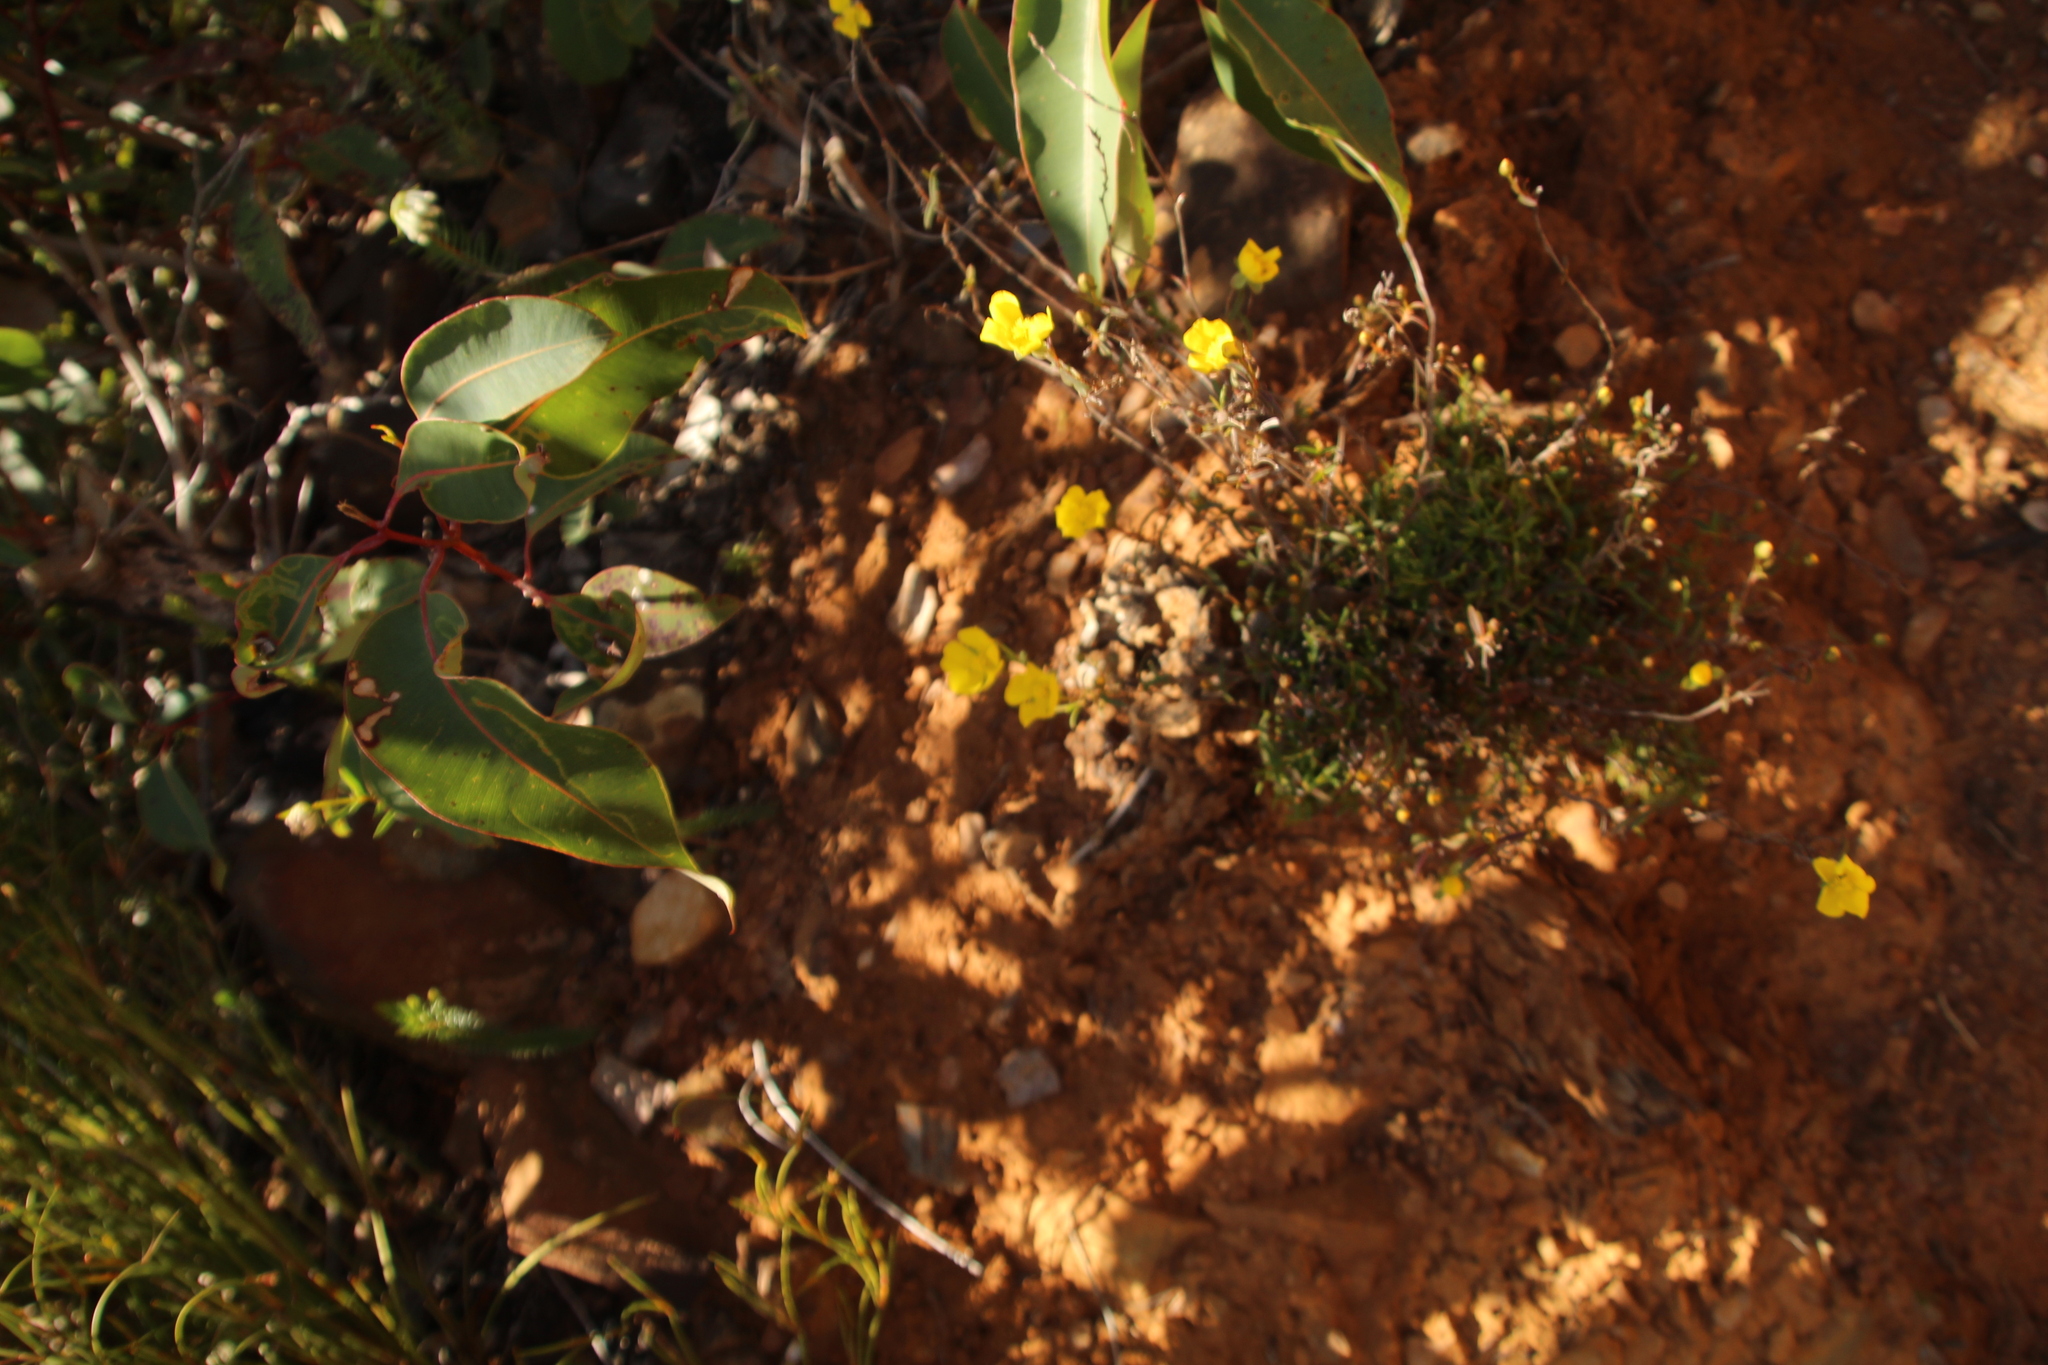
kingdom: Plantae
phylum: Tracheophyta
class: Magnoliopsida
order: Dilleniales
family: Dilleniaceae
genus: Hibbertia
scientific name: Hibbertia cunninghamii
